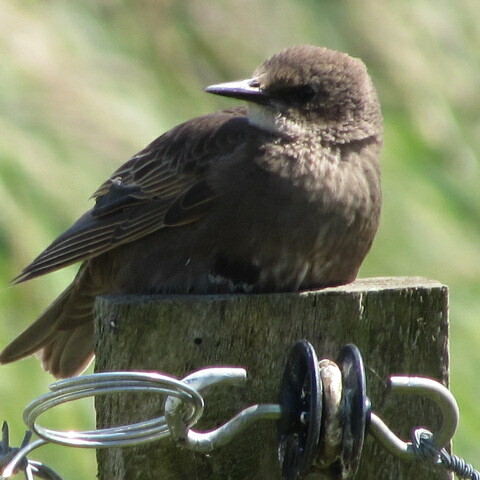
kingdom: Animalia
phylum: Chordata
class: Aves
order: Passeriformes
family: Sturnidae
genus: Sturnus
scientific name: Sturnus vulgaris
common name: Common starling
